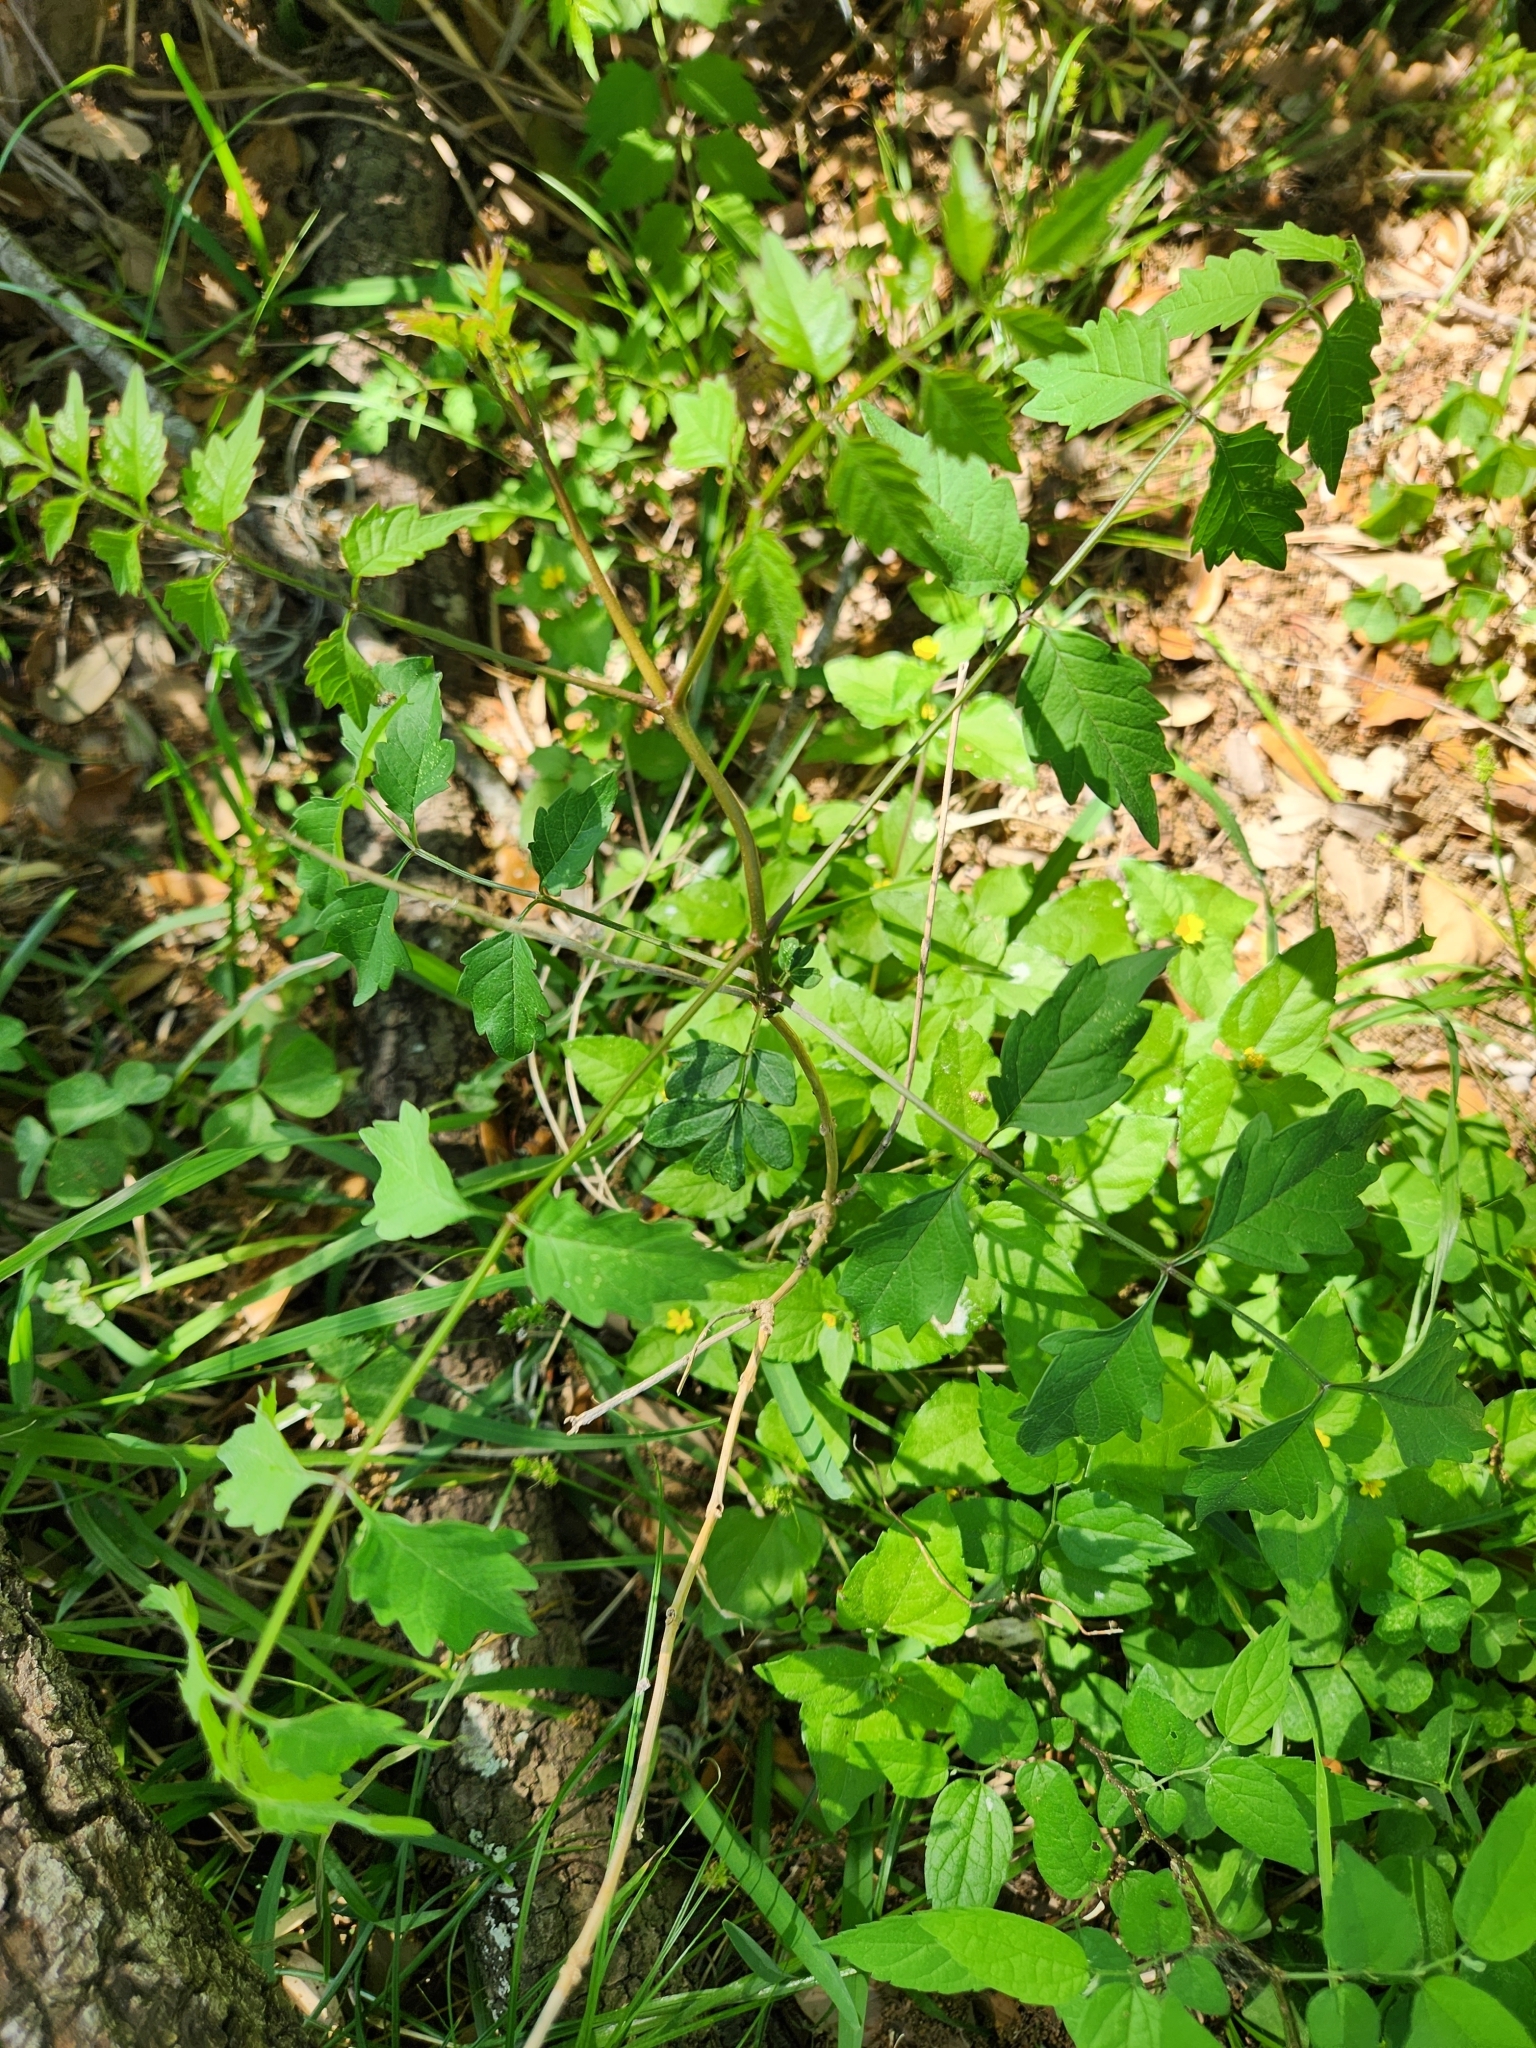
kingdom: Plantae
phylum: Tracheophyta
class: Magnoliopsida
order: Lamiales
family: Bignoniaceae
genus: Campsis
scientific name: Campsis radicans
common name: Trumpet-creeper
